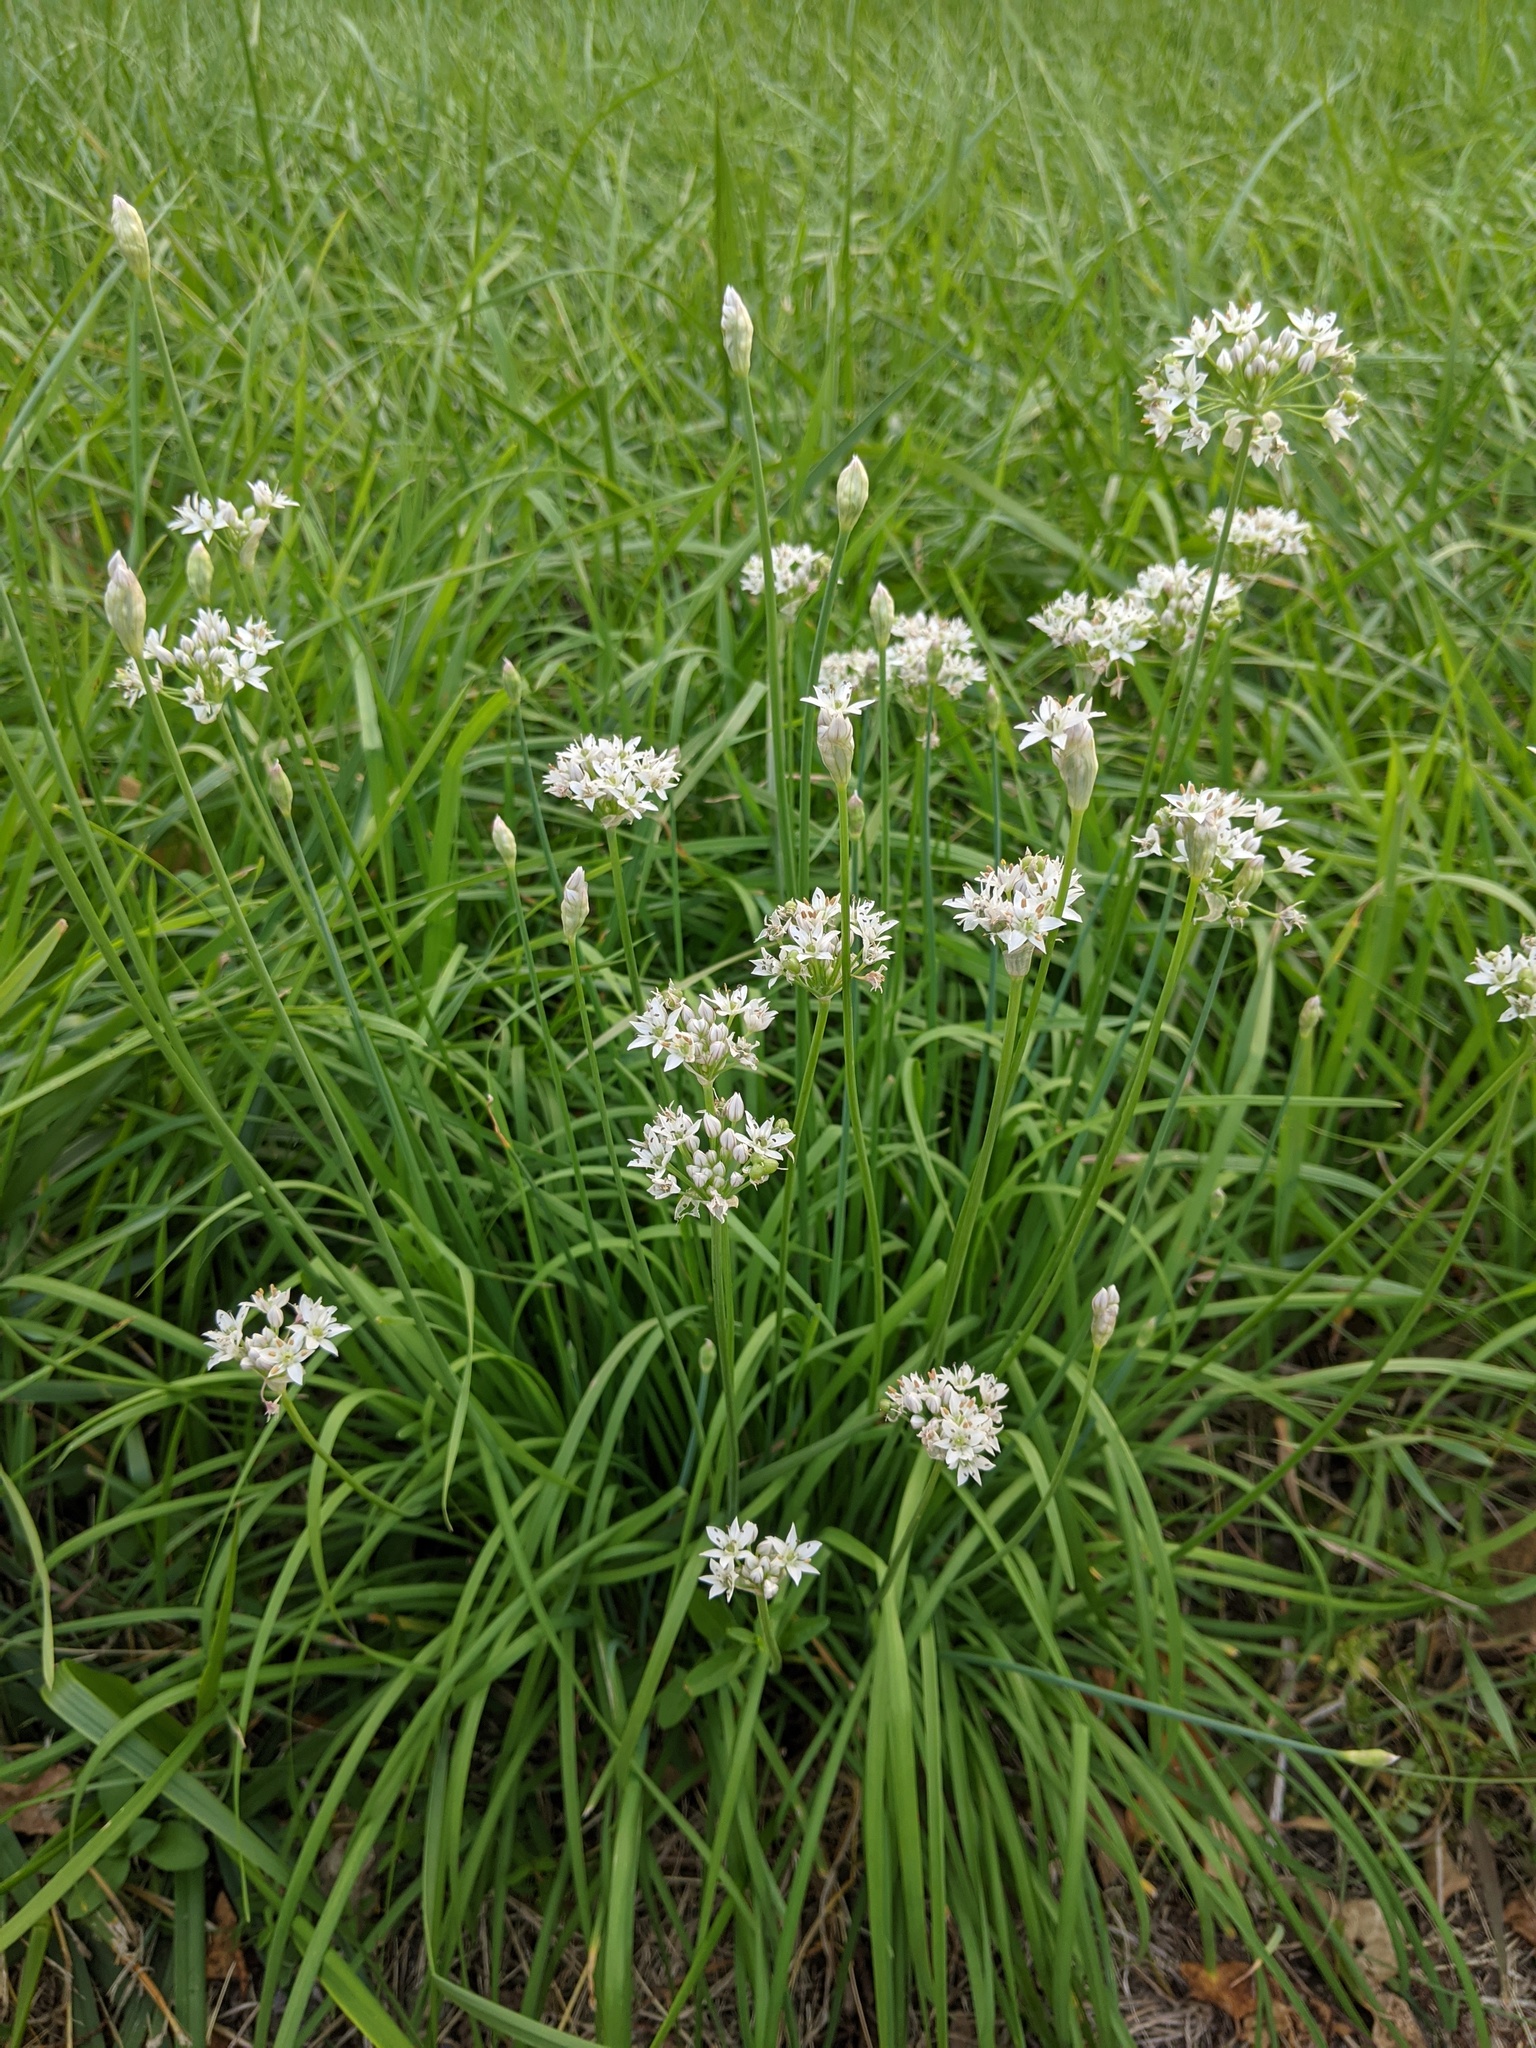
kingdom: Plantae
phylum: Tracheophyta
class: Liliopsida
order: Asparagales
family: Amaryllidaceae
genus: Allium
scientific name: Allium tuberosum
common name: Chinese chives
